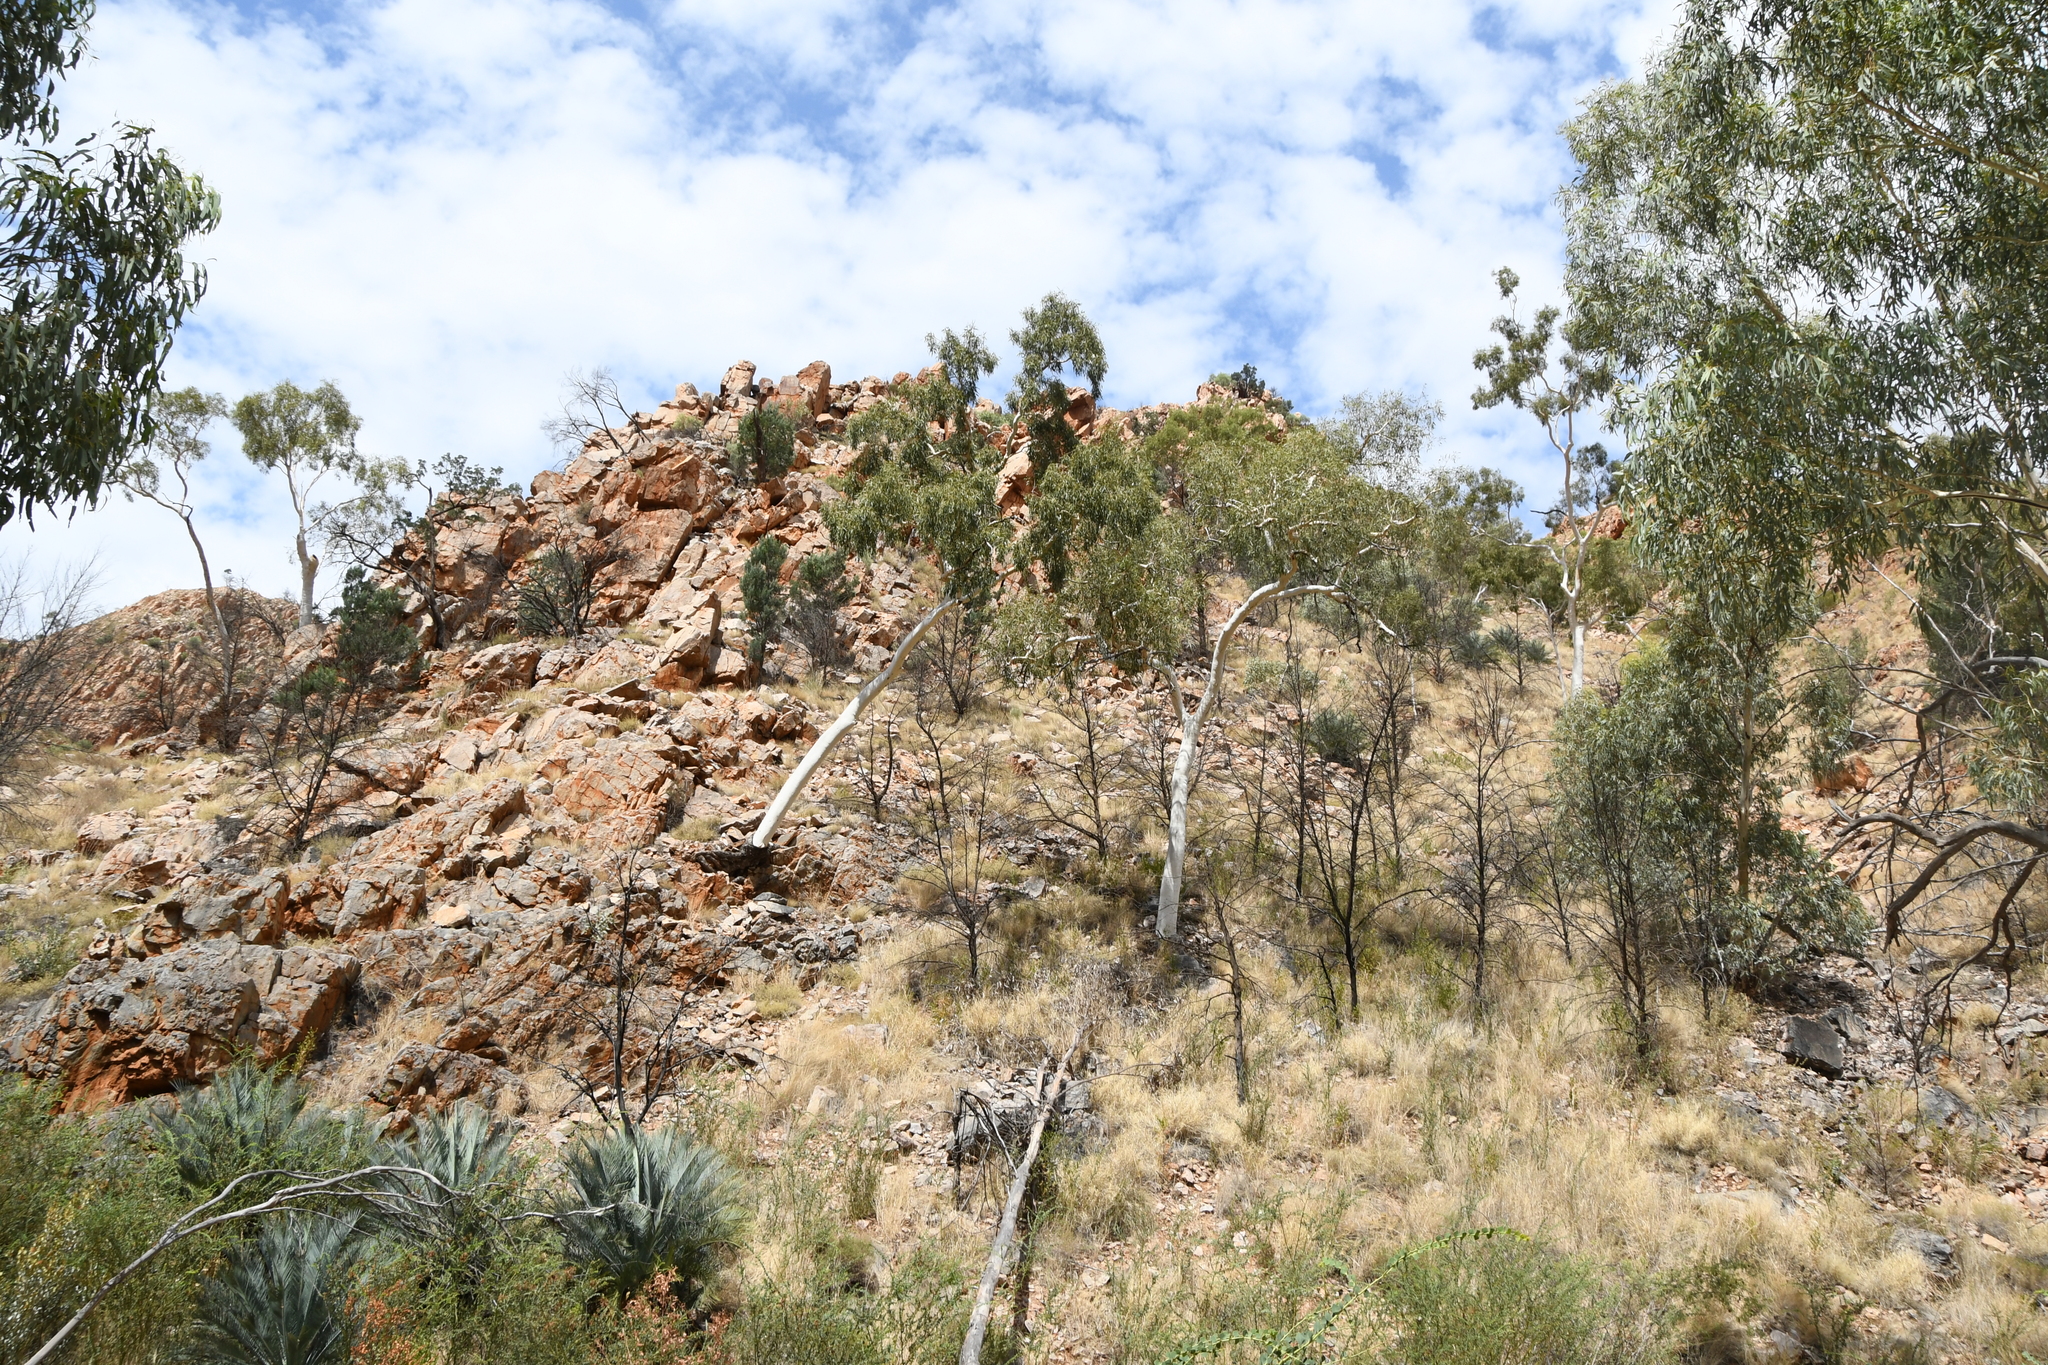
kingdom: Plantae
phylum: Tracheophyta
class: Magnoliopsida
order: Myrtales
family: Myrtaceae
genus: Corymbia
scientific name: Corymbia aparrerinja
